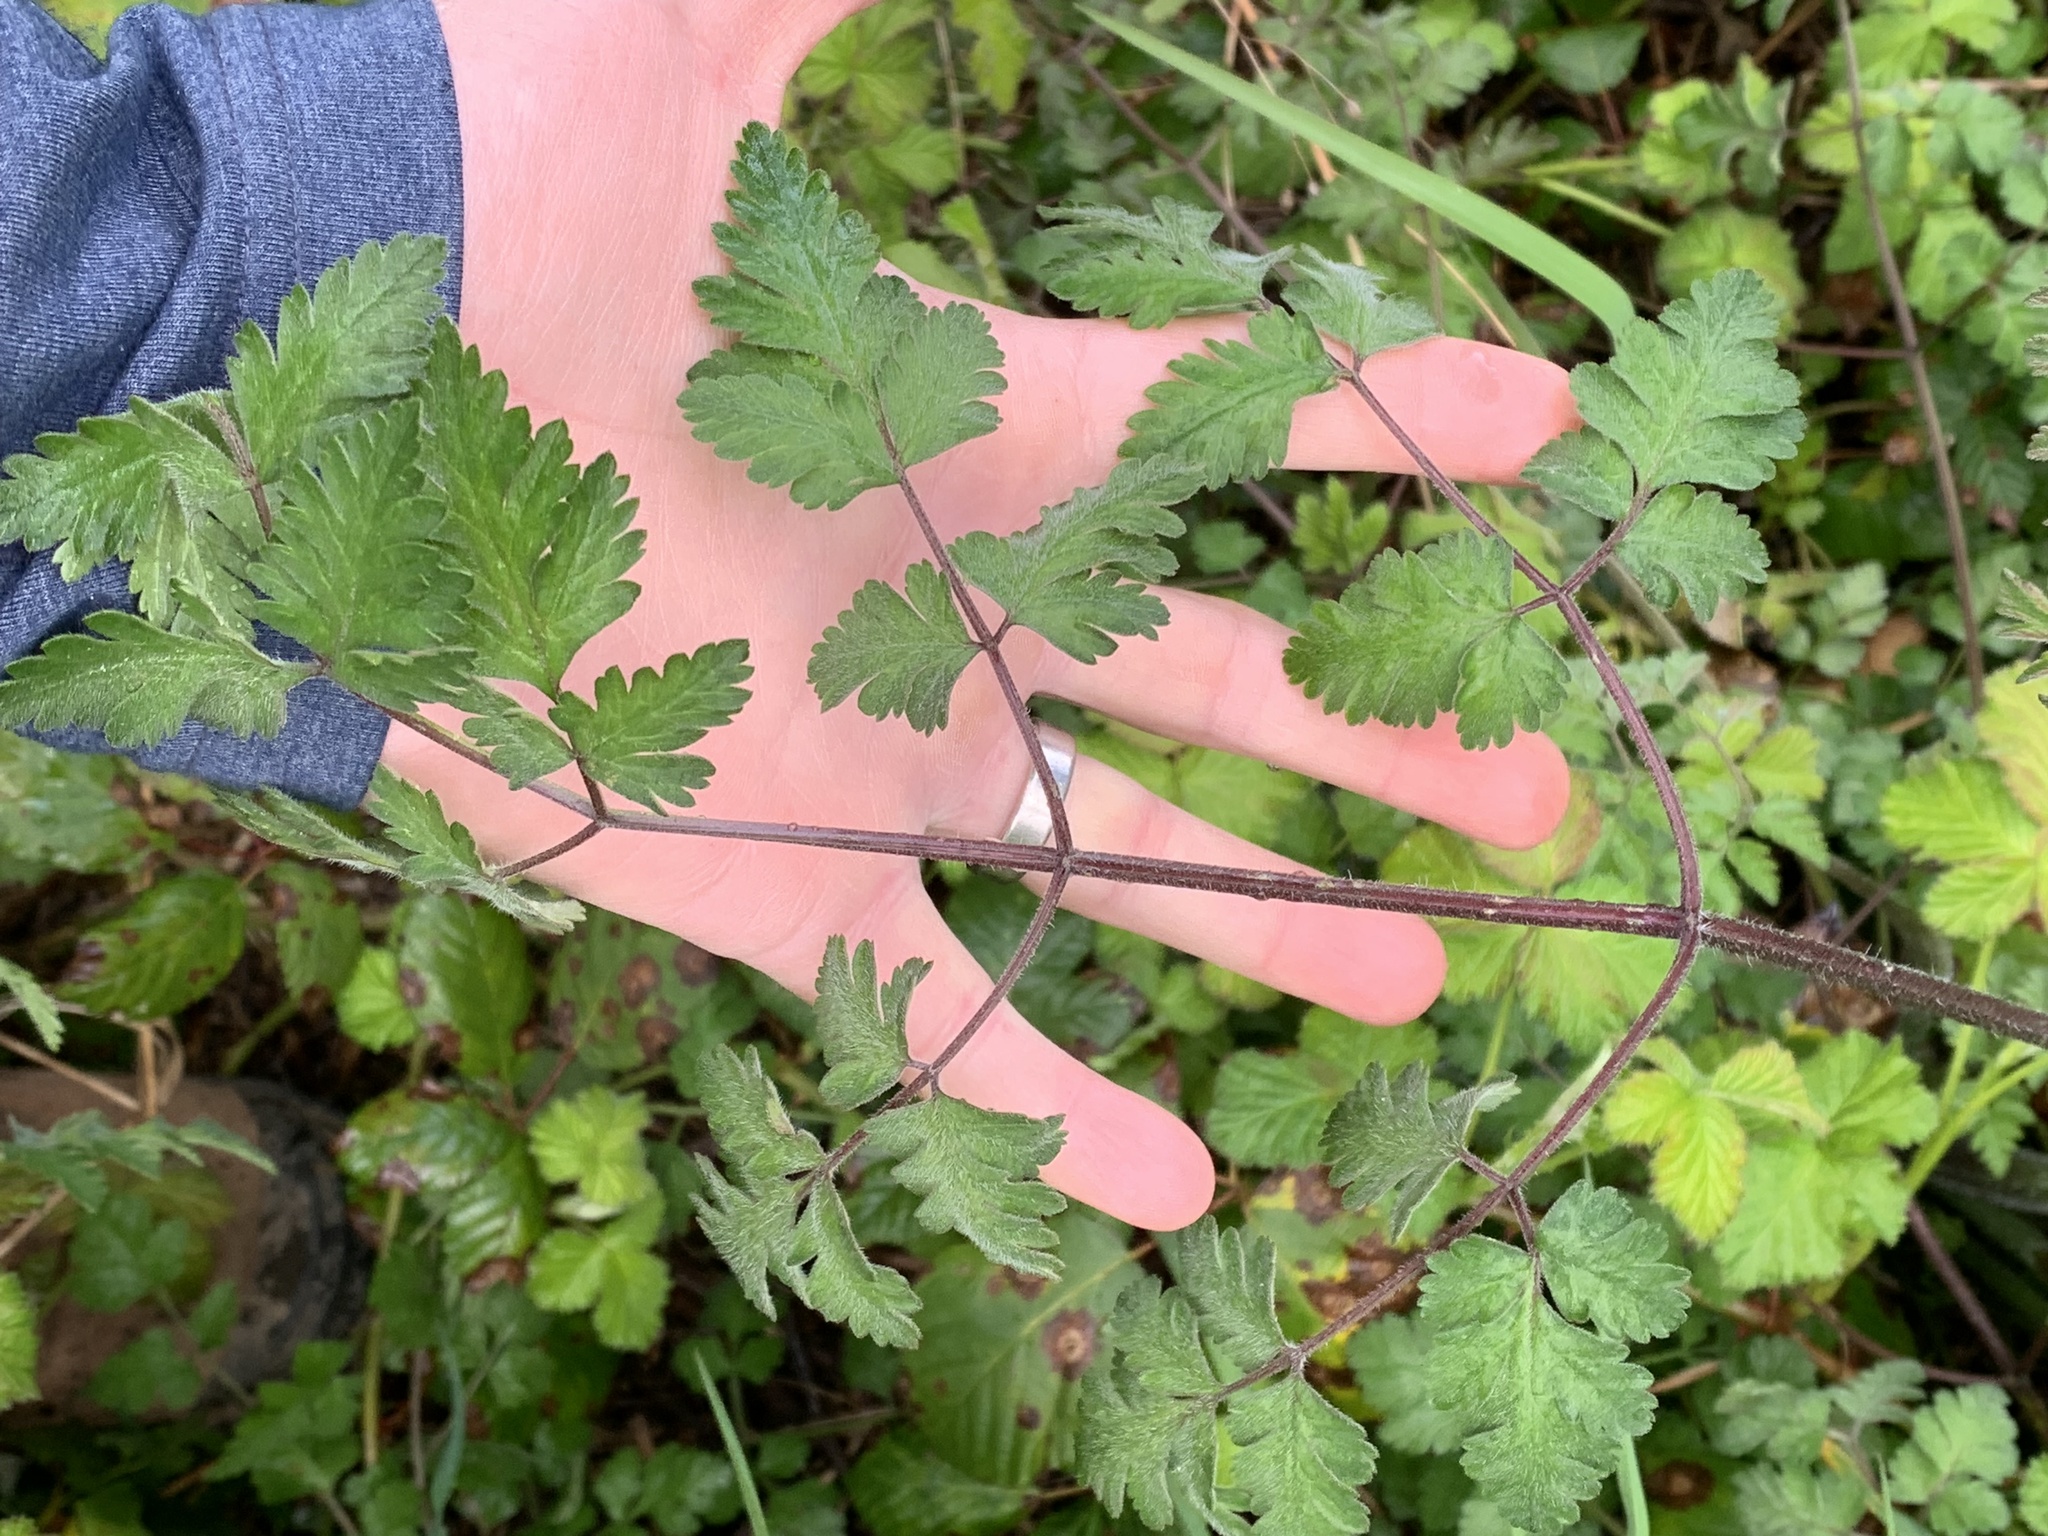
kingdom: Plantae
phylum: Tracheophyta
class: Magnoliopsida
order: Apiales
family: Apiaceae
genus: Chaerophyllum
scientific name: Chaerophyllum temulum
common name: Rough chervil
